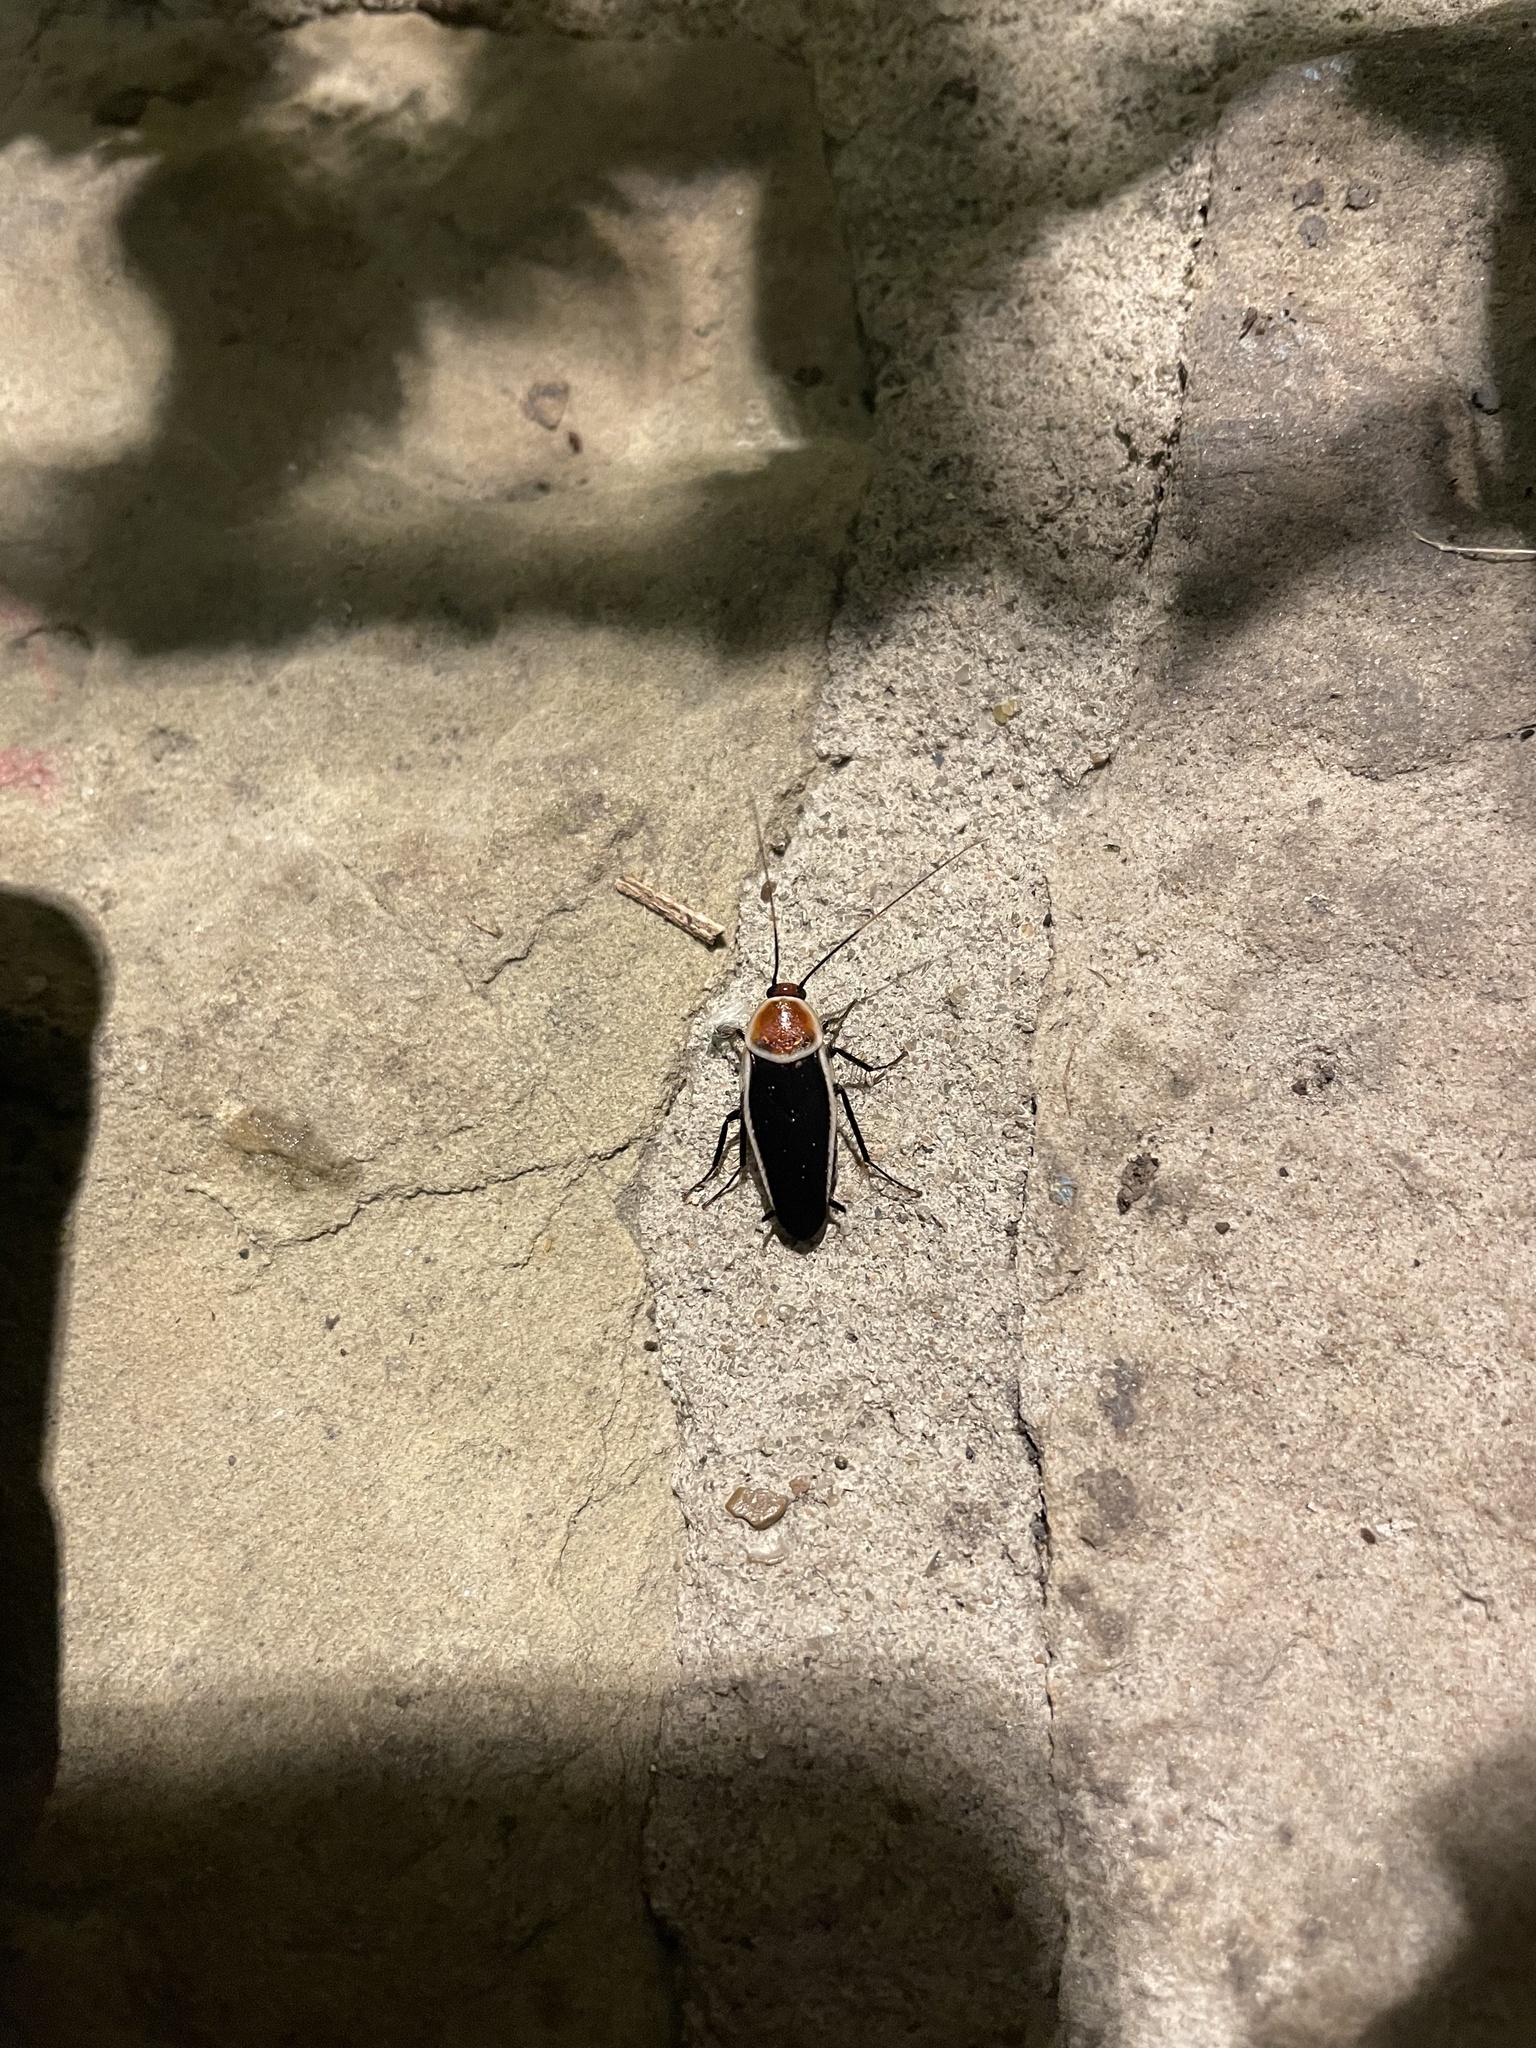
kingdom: Animalia
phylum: Arthropoda
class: Insecta
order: Blattodea
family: Ectobiidae
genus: Pseudomops
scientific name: Pseudomops septentrionalis
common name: Pale-bordered field cockroach
